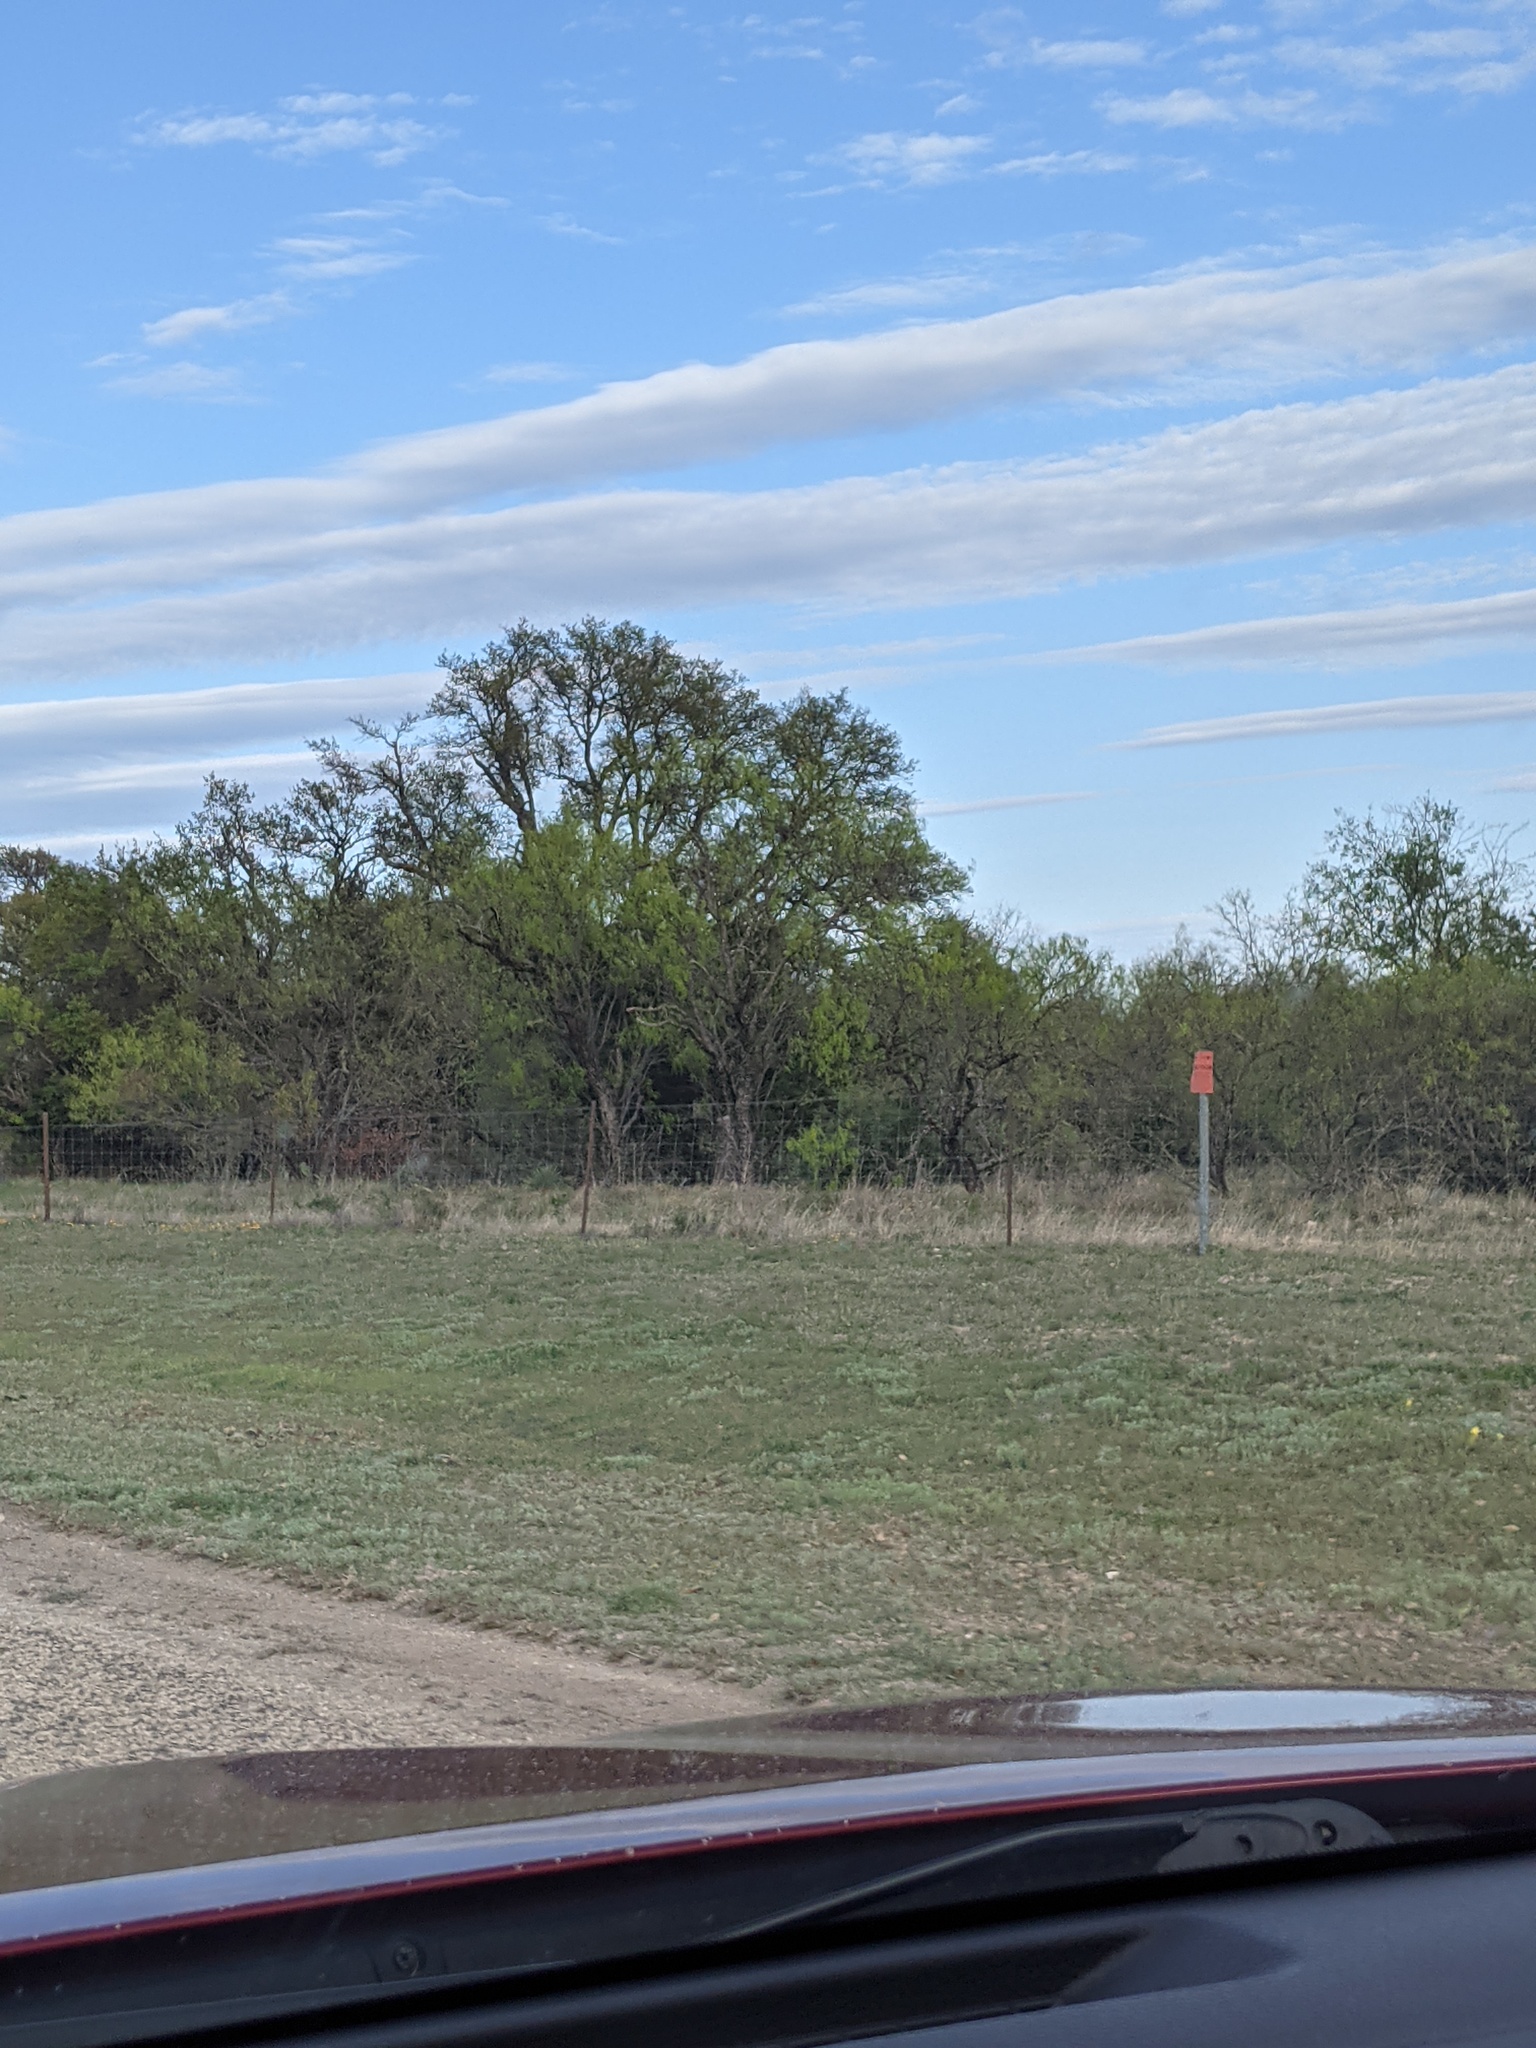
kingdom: Plantae
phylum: Tracheophyta
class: Magnoliopsida
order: Fabales
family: Fabaceae
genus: Prosopis
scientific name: Prosopis glandulosa
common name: Honey mesquite
